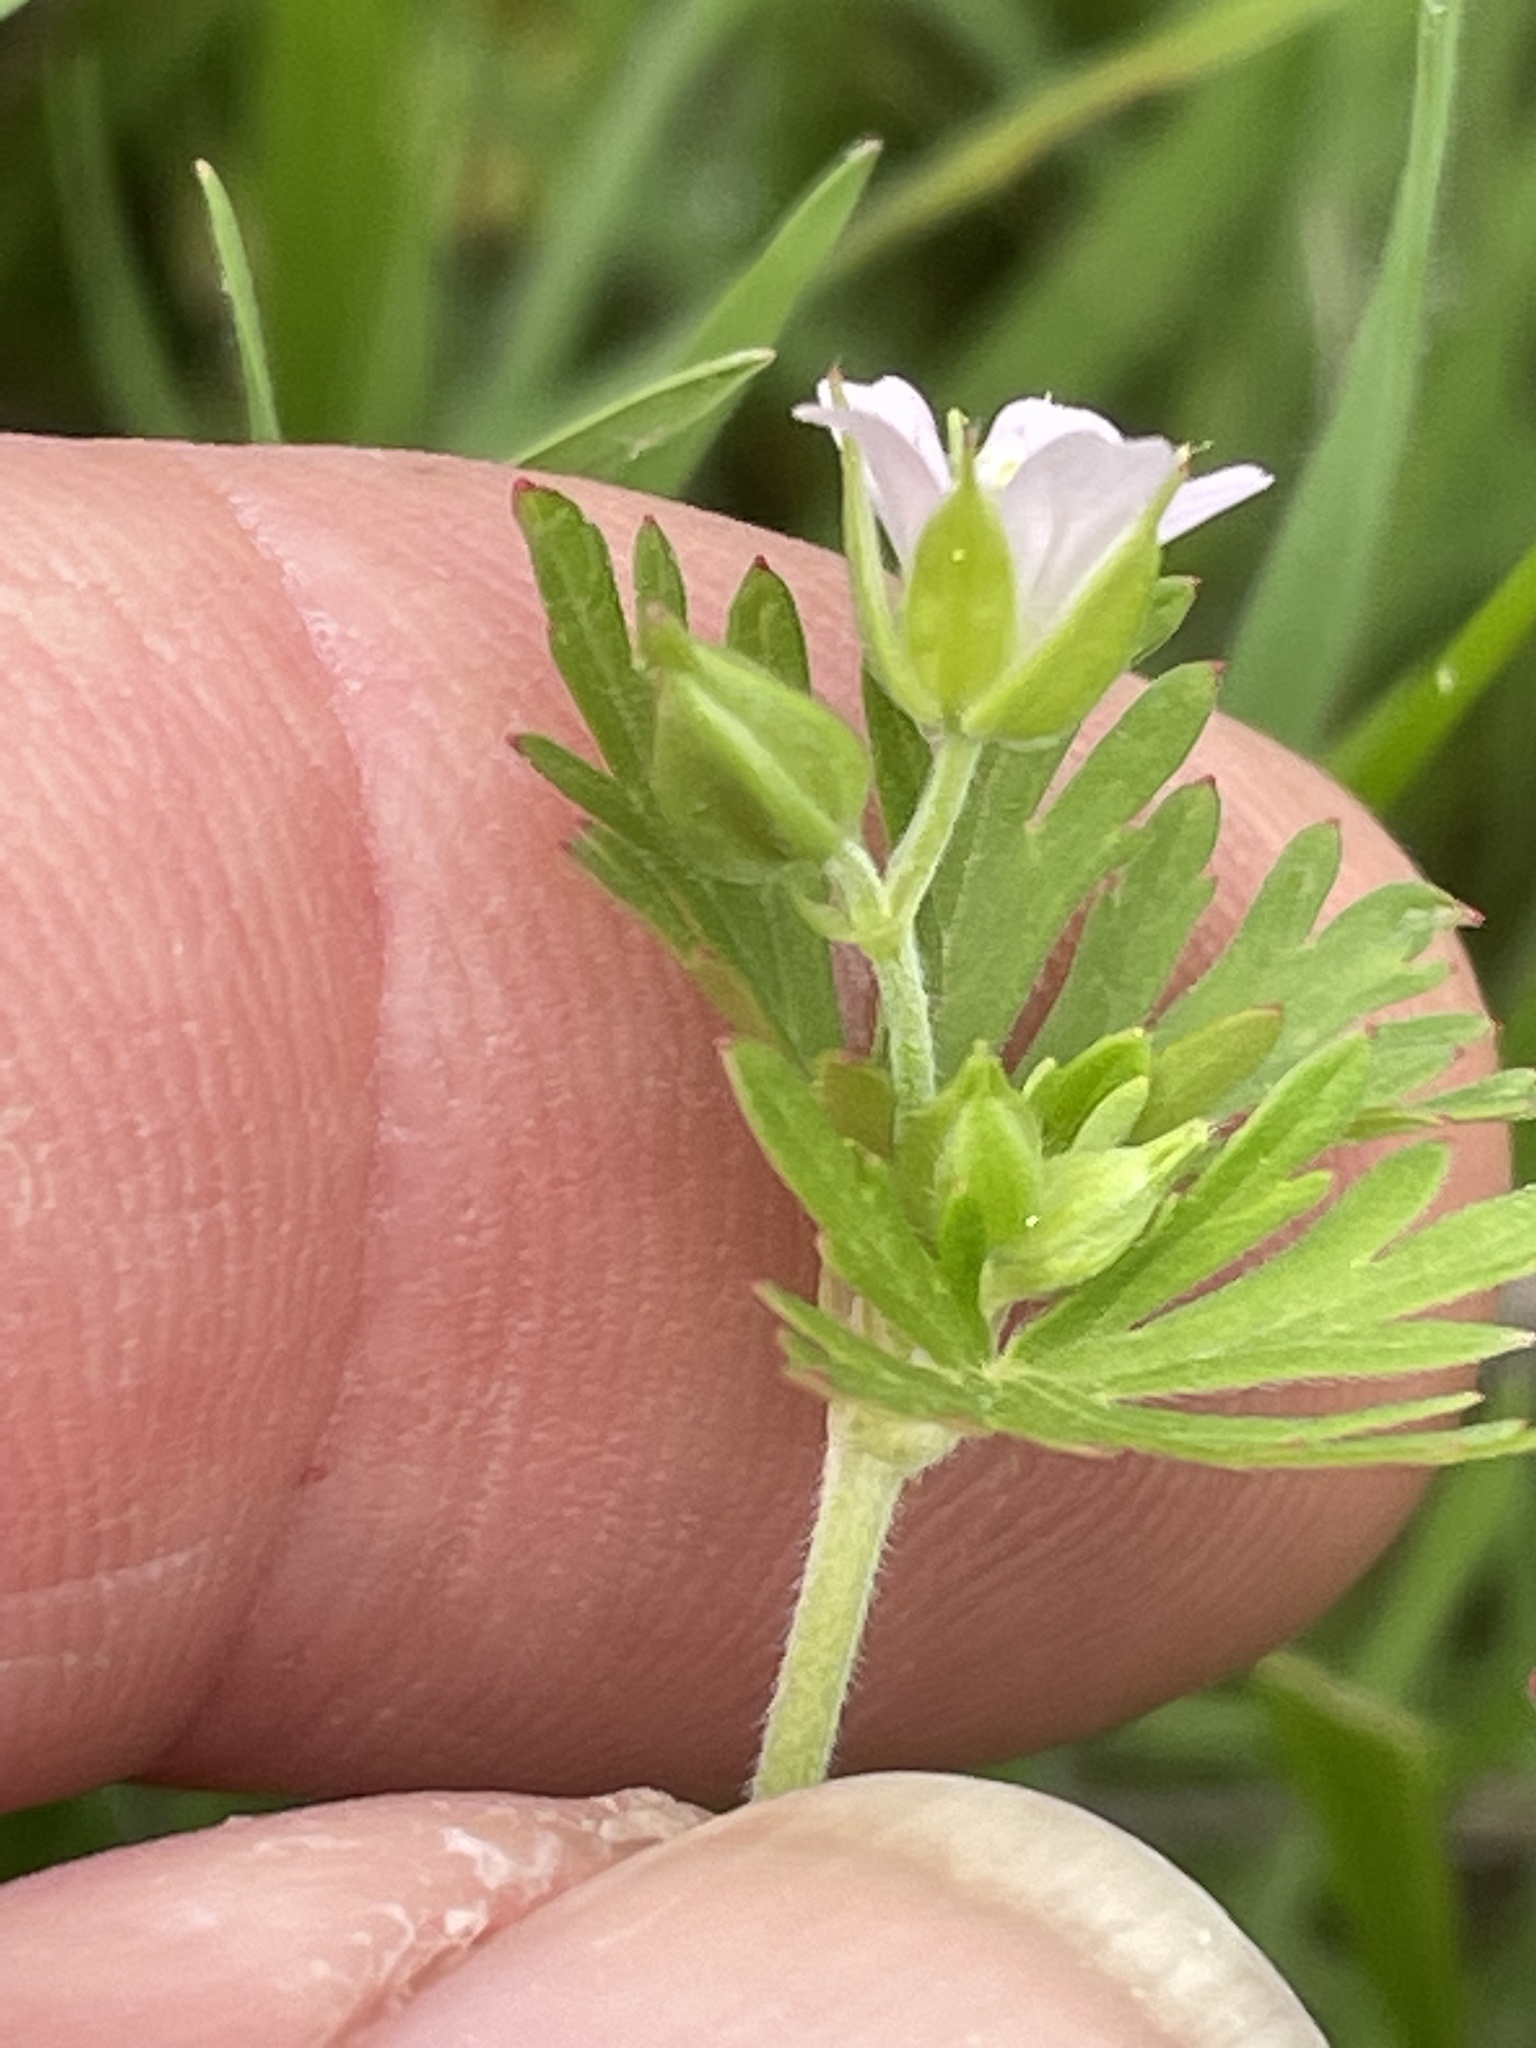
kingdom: Plantae
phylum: Tracheophyta
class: Magnoliopsida
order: Geraniales
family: Geraniaceae
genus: Geranium
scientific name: Geranium carolinianum
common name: Carolina crane's-bill
